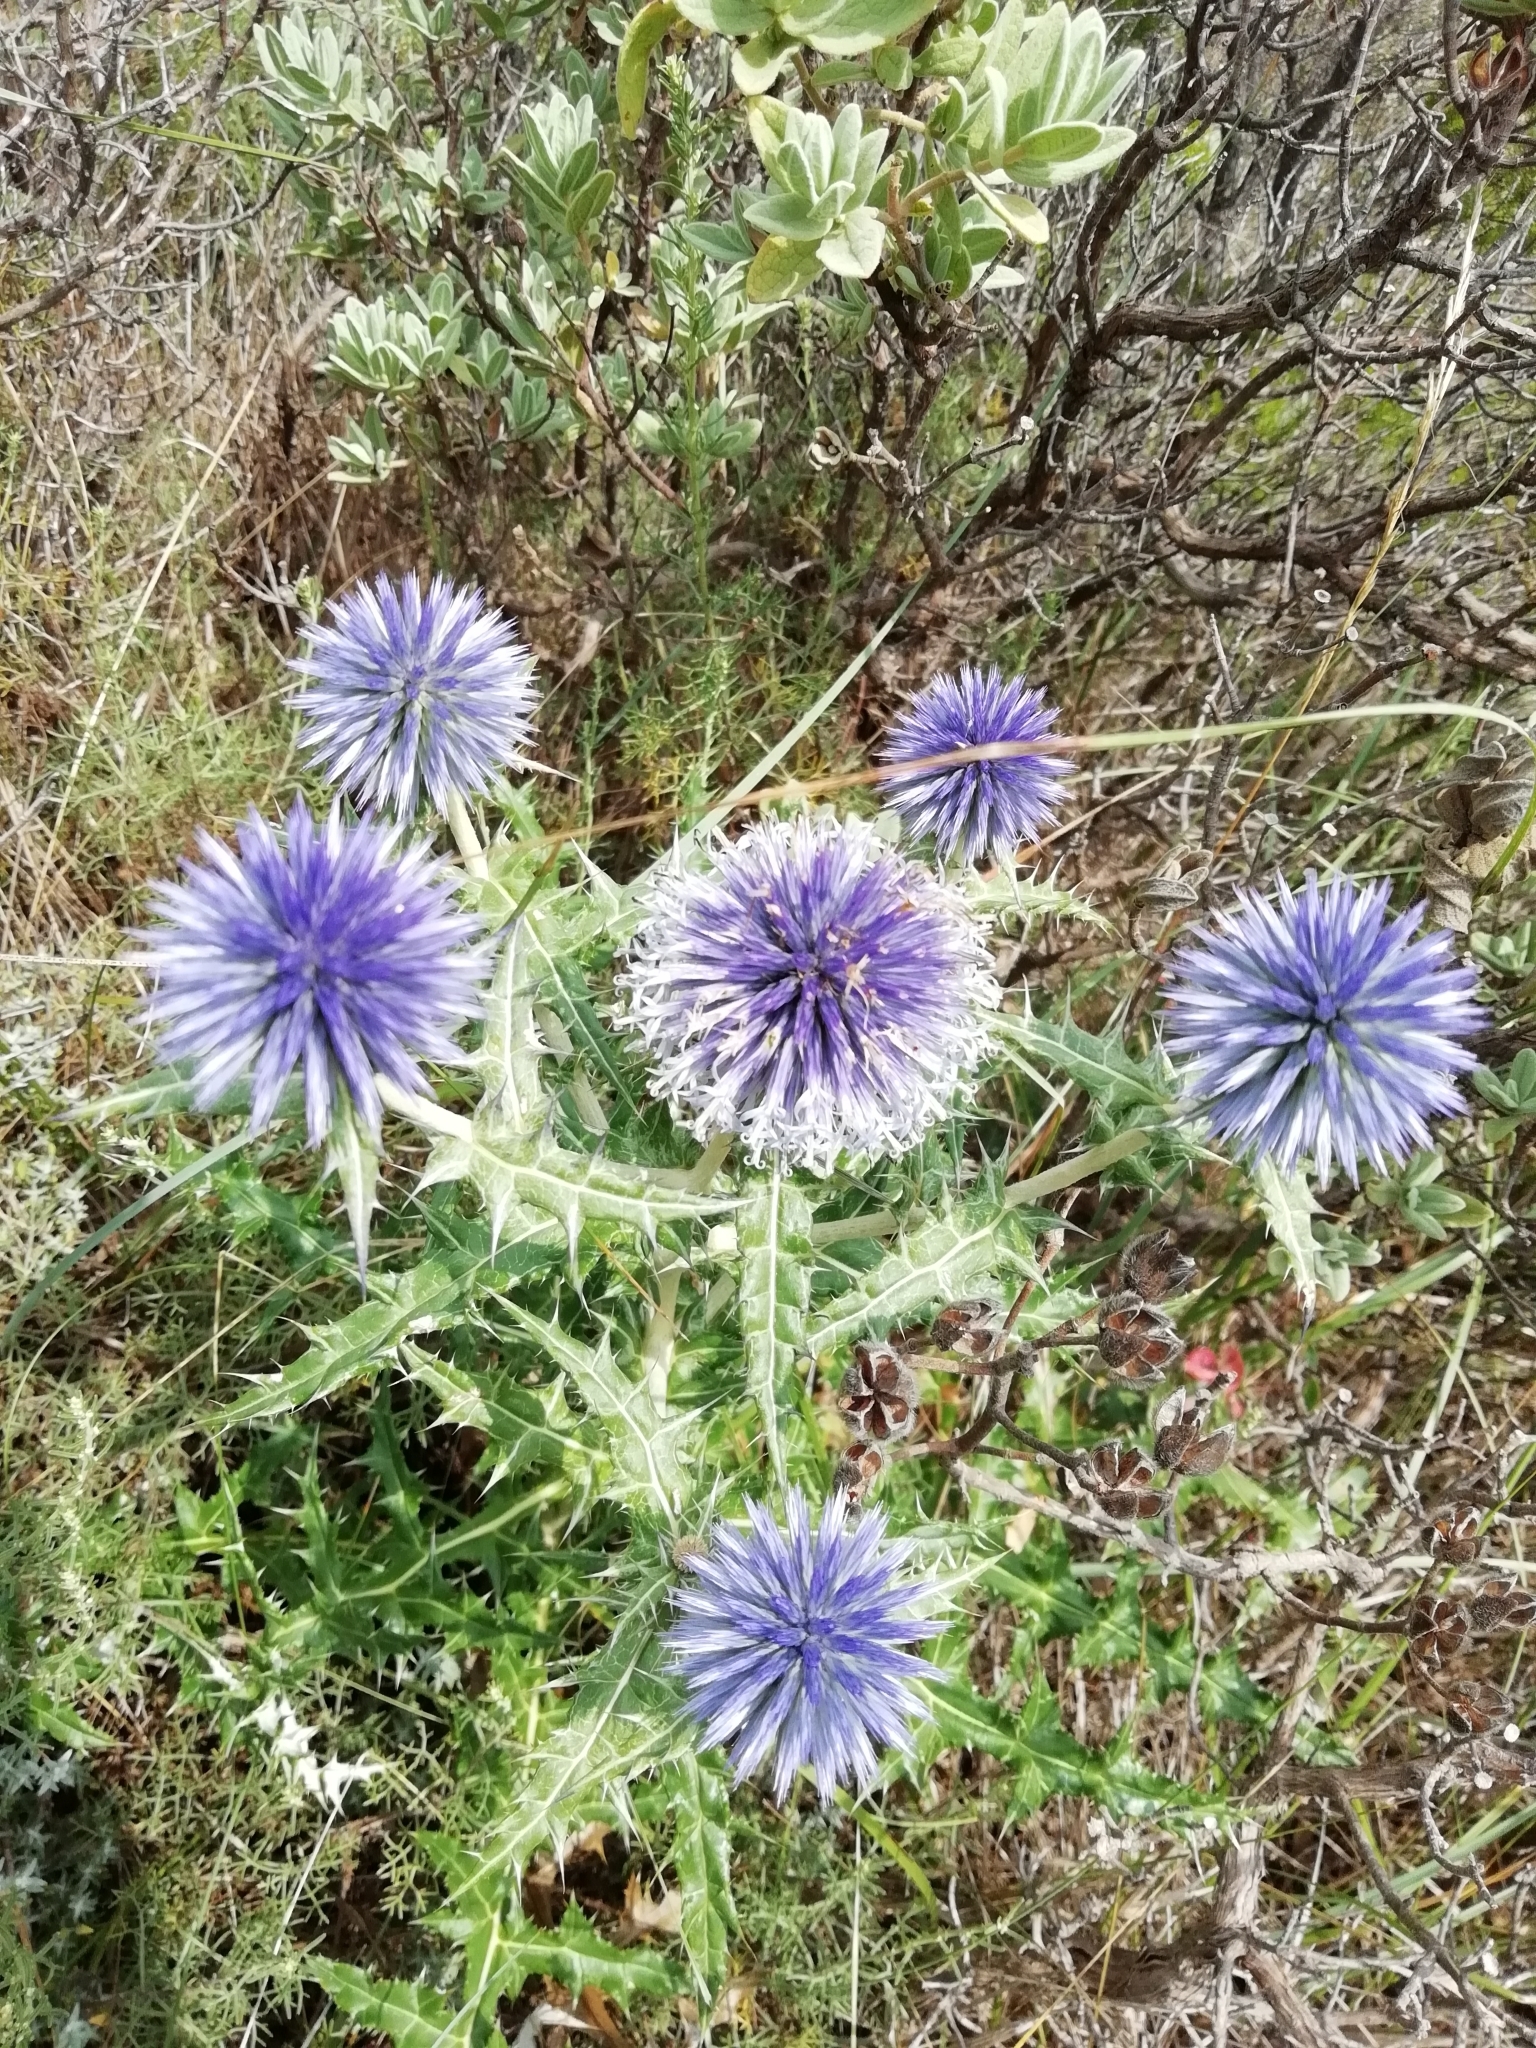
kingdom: Plantae
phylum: Tracheophyta
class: Magnoliopsida
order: Asterales
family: Asteraceae
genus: Echinops
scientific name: Echinops ritro
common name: Globe thistle
